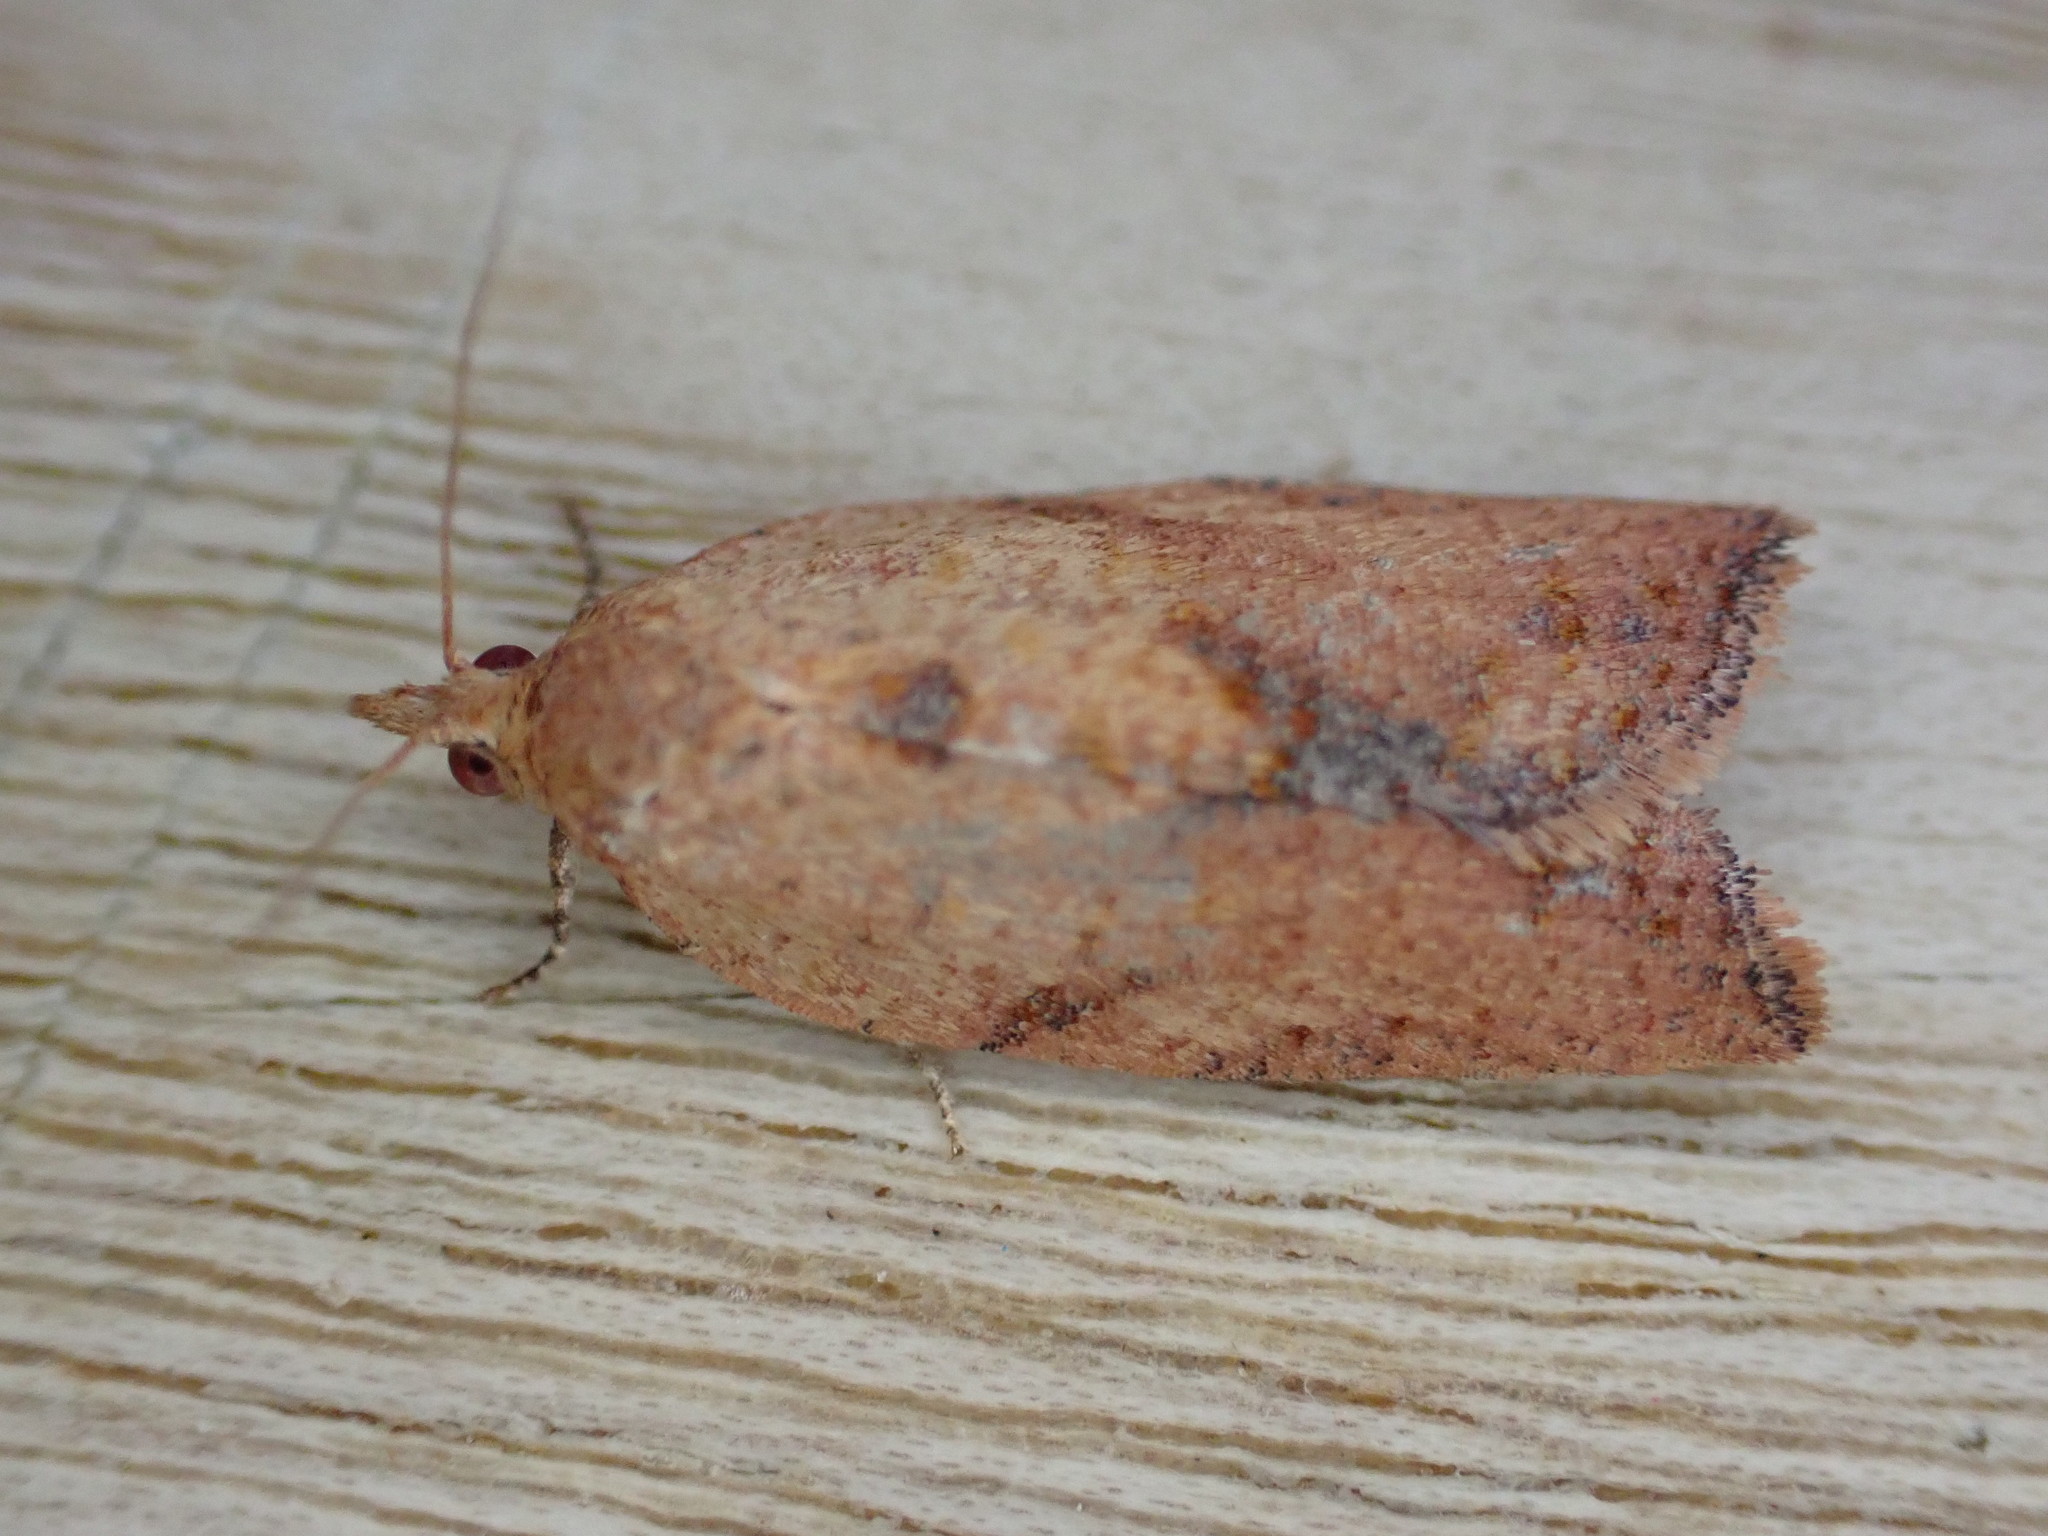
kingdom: Animalia
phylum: Arthropoda
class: Insecta
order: Lepidoptera
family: Tortricidae
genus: Epiphyas
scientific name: Epiphyas postvittana
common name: Light brown apple moth
